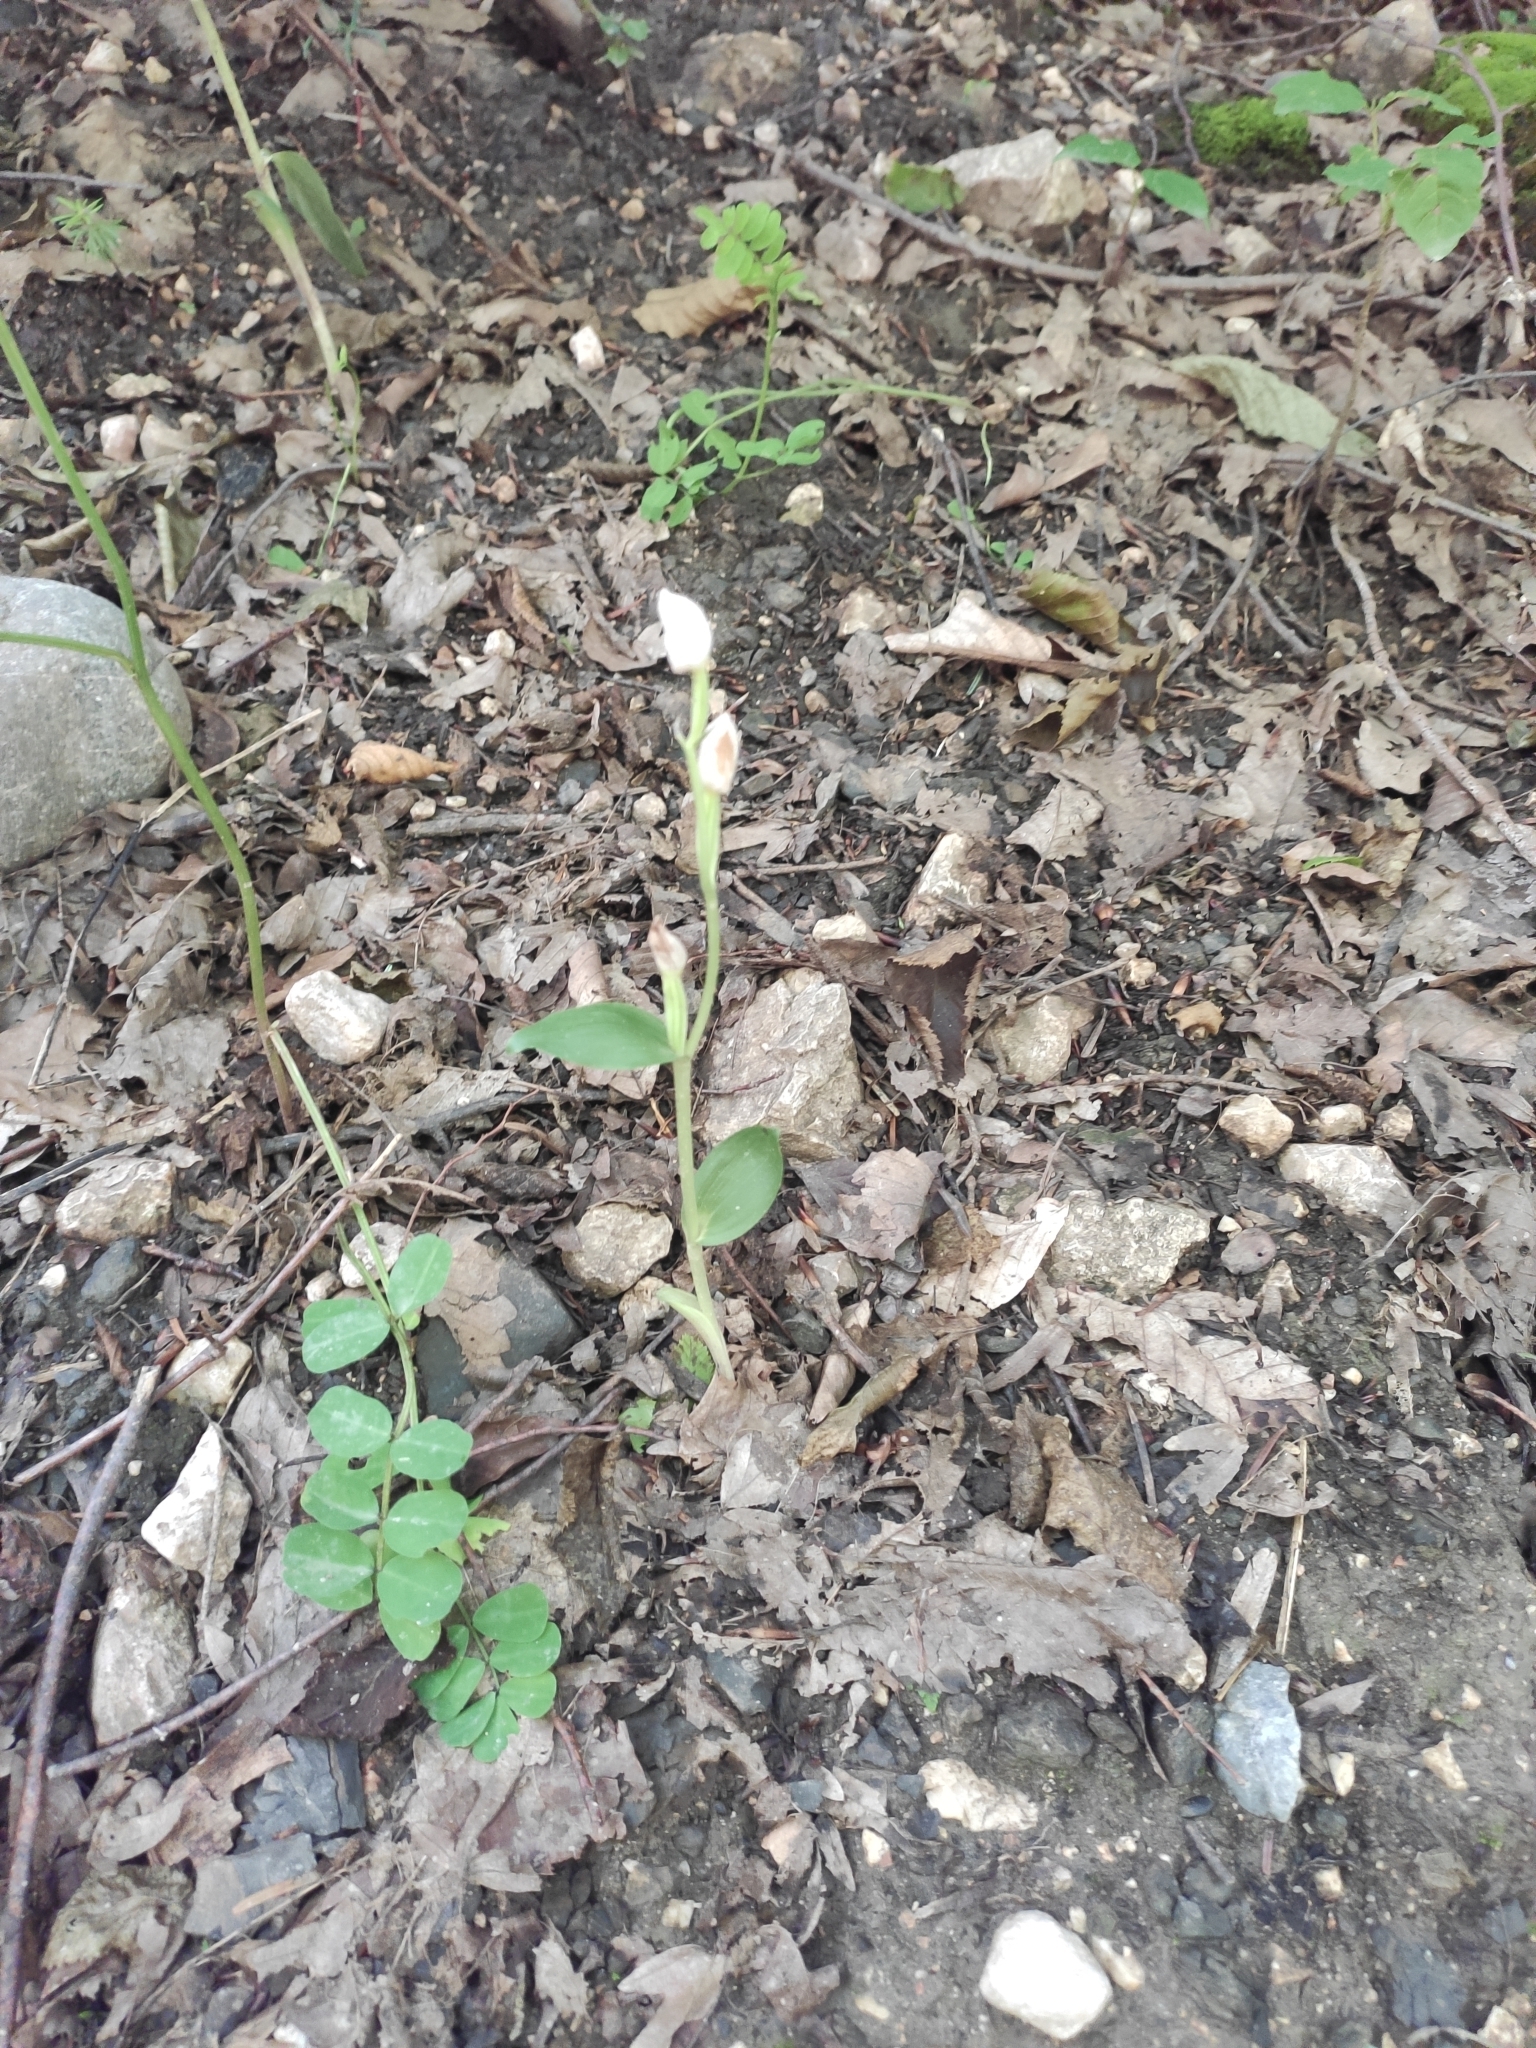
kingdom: Plantae
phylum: Tracheophyta
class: Liliopsida
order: Asparagales
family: Orchidaceae
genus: Cephalanthera
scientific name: Cephalanthera damasonium
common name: White helleborine
